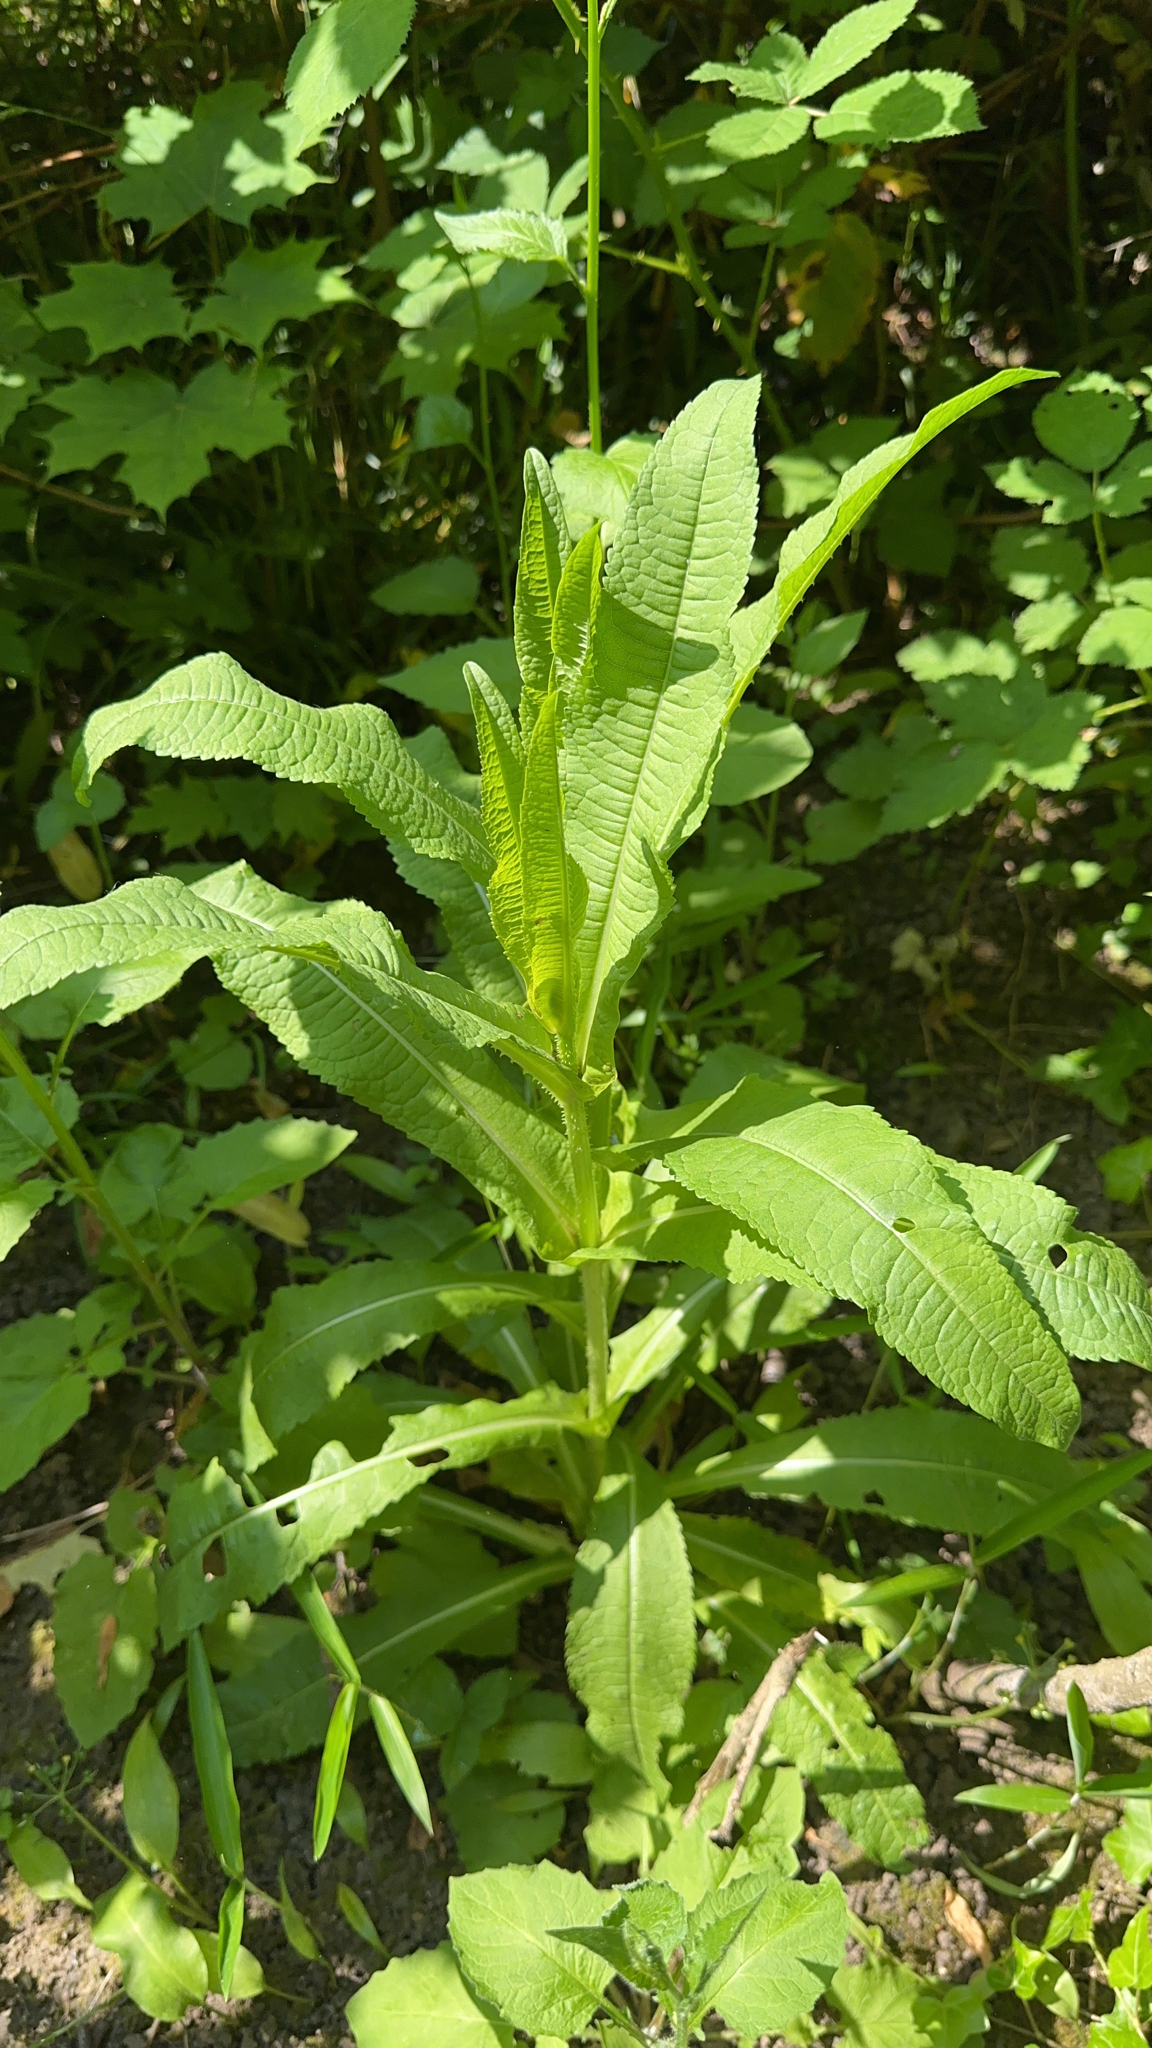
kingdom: Plantae
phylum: Tracheophyta
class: Magnoliopsida
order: Dipsacales
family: Caprifoliaceae
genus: Dipsacus
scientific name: Dipsacus fullonum
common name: Teasel
